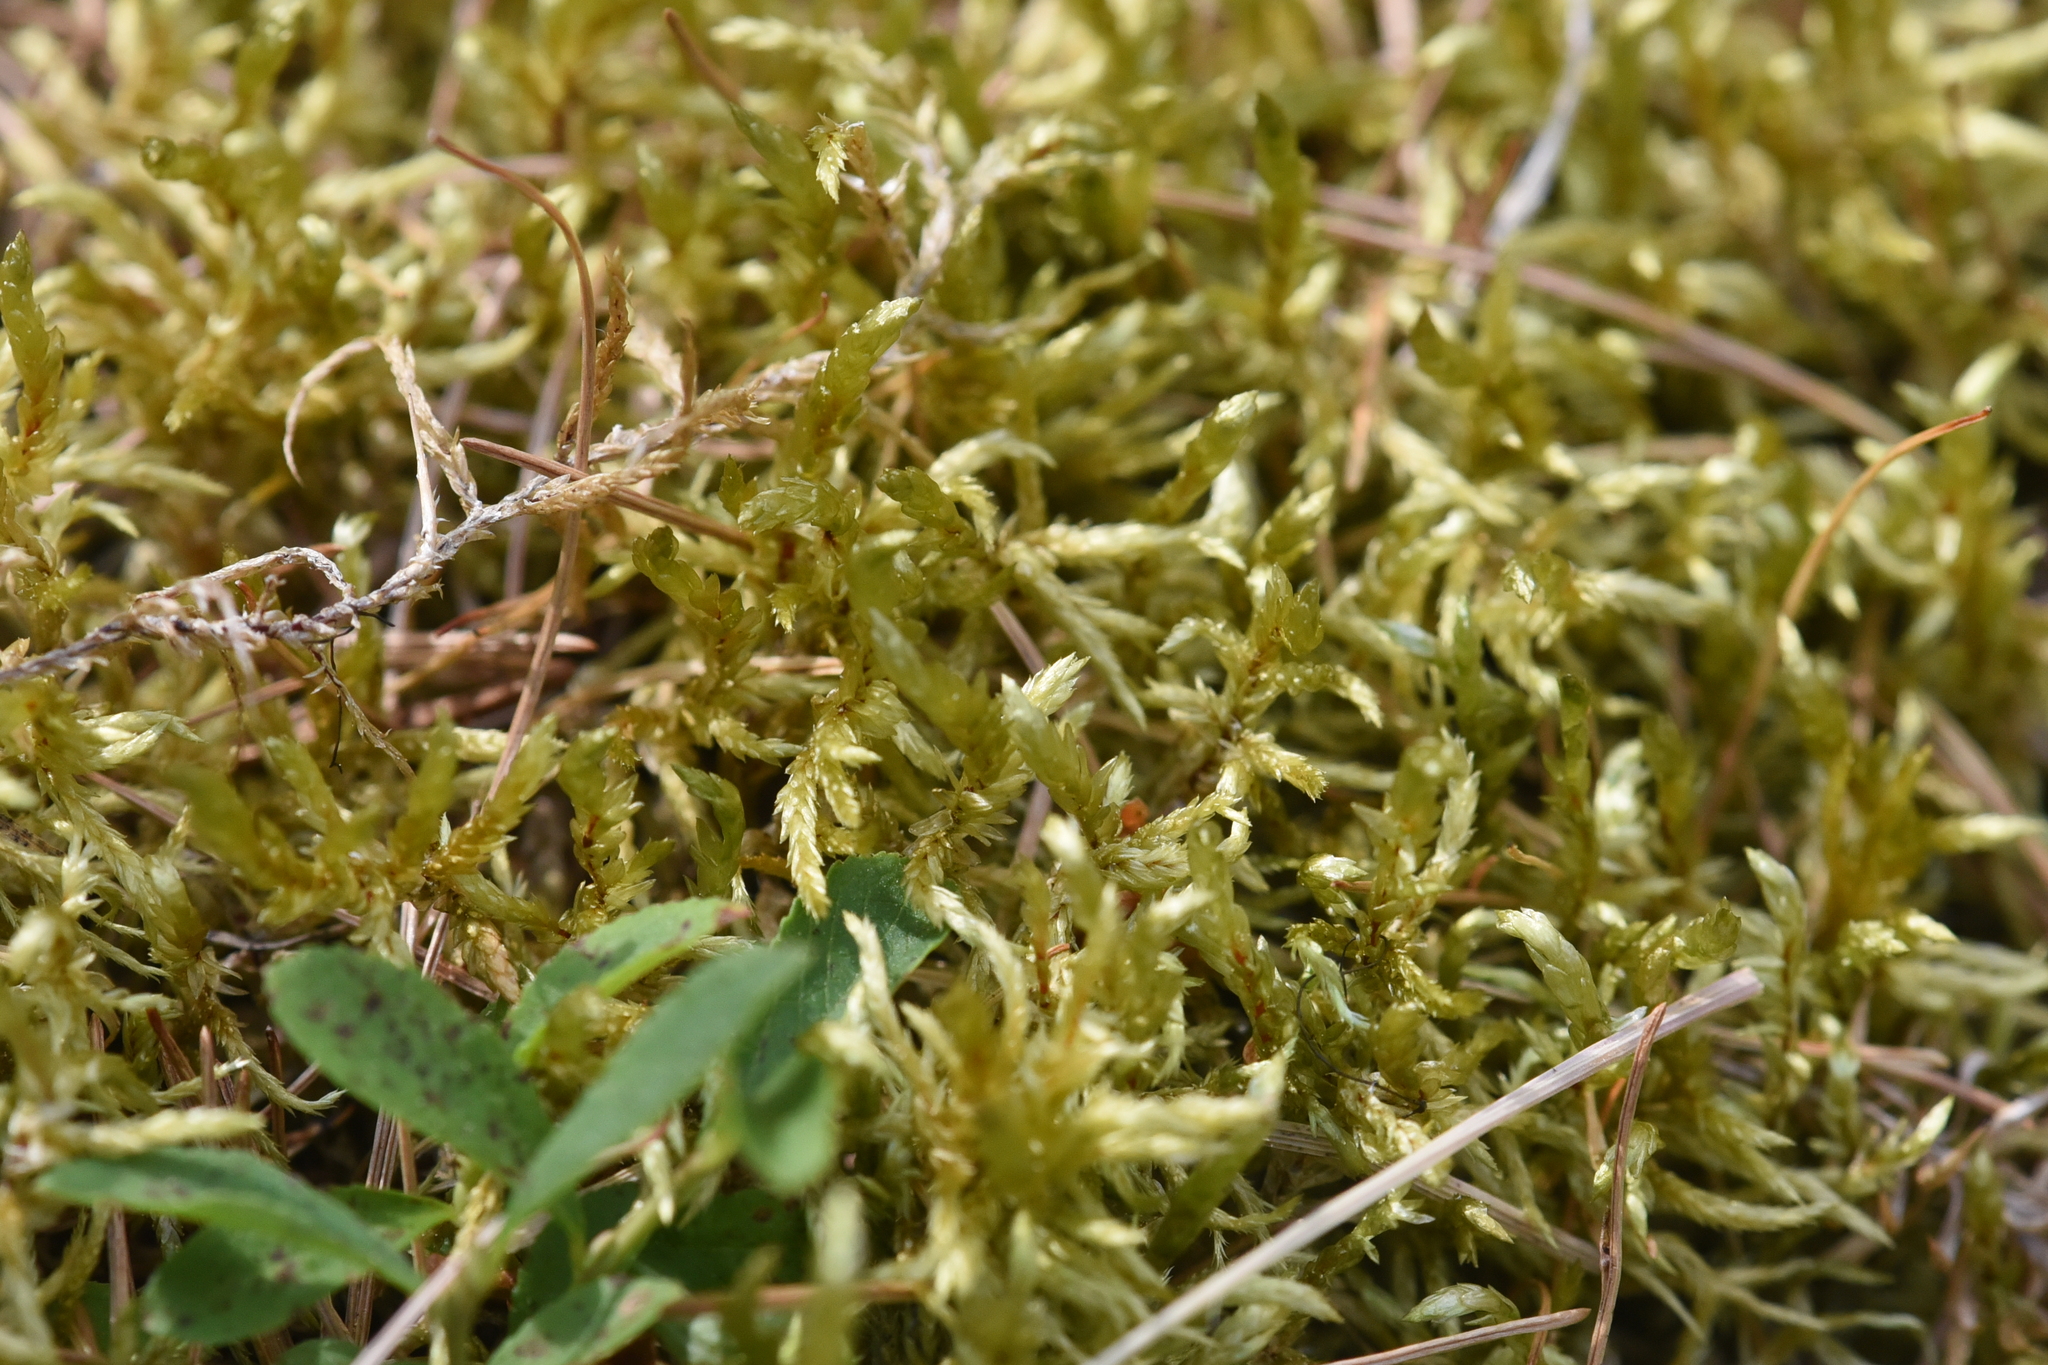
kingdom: Plantae
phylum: Bryophyta
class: Bryopsida
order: Hypnales
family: Hylocomiaceae
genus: Pleurozium
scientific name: Pleurozium schreberi
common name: Red-stemmed feather moss
